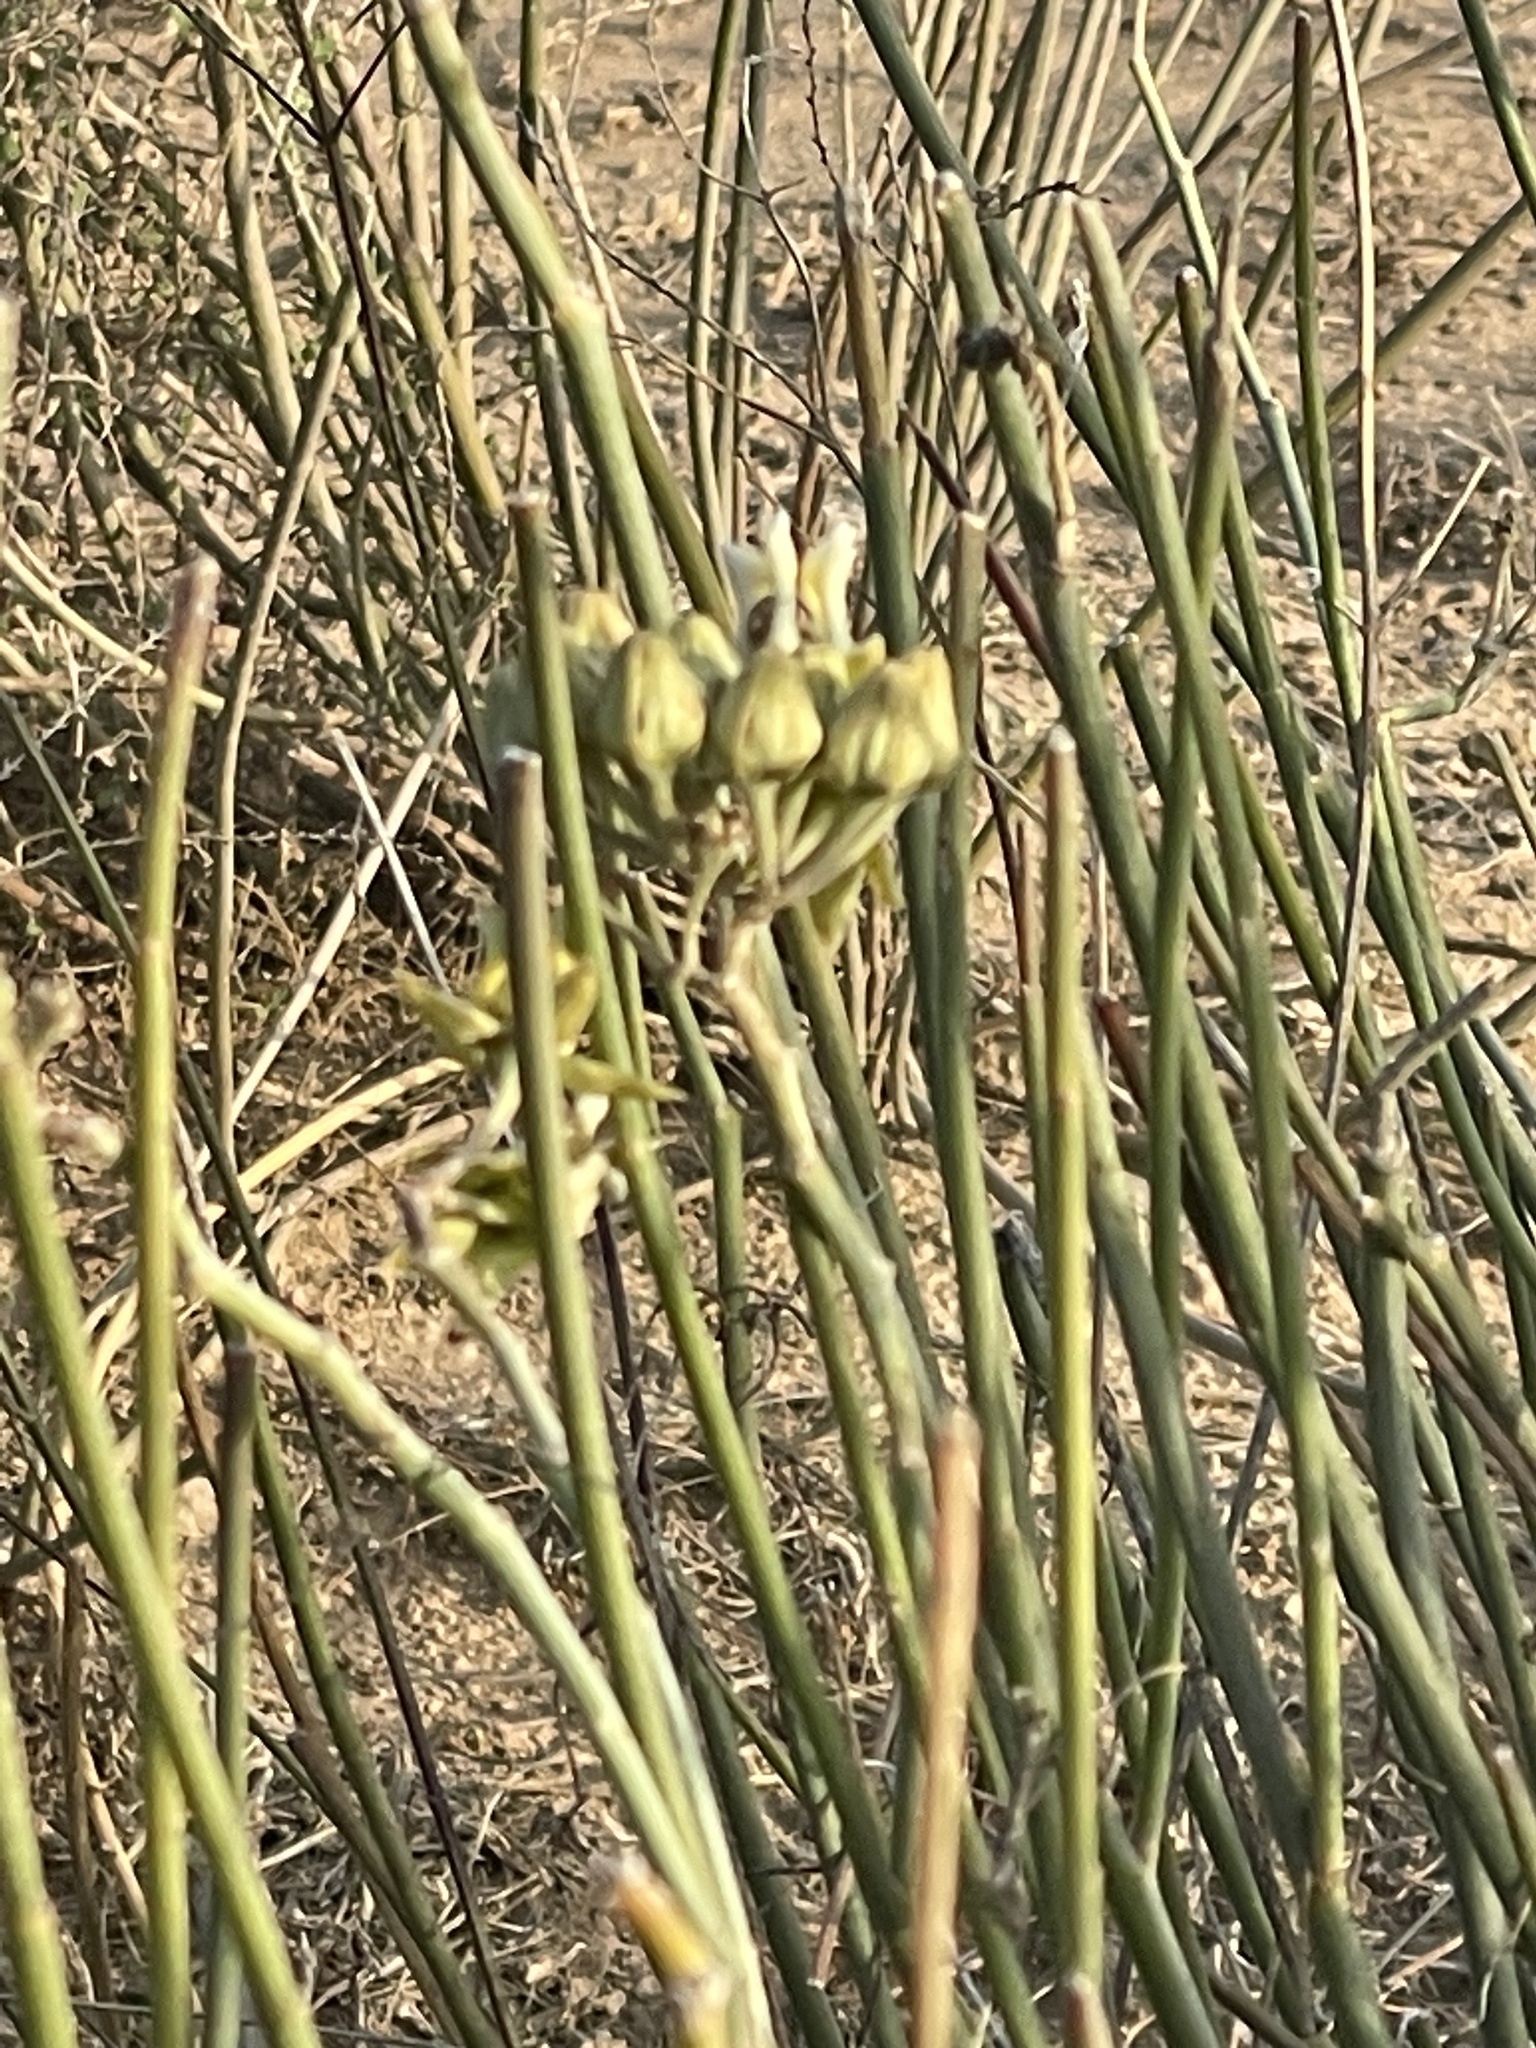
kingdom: Plantae
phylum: Tracheophyta
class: Magnoliopsida
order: Gentianales
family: Apocynaceae
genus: Asclepias
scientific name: Asclepias subulata
